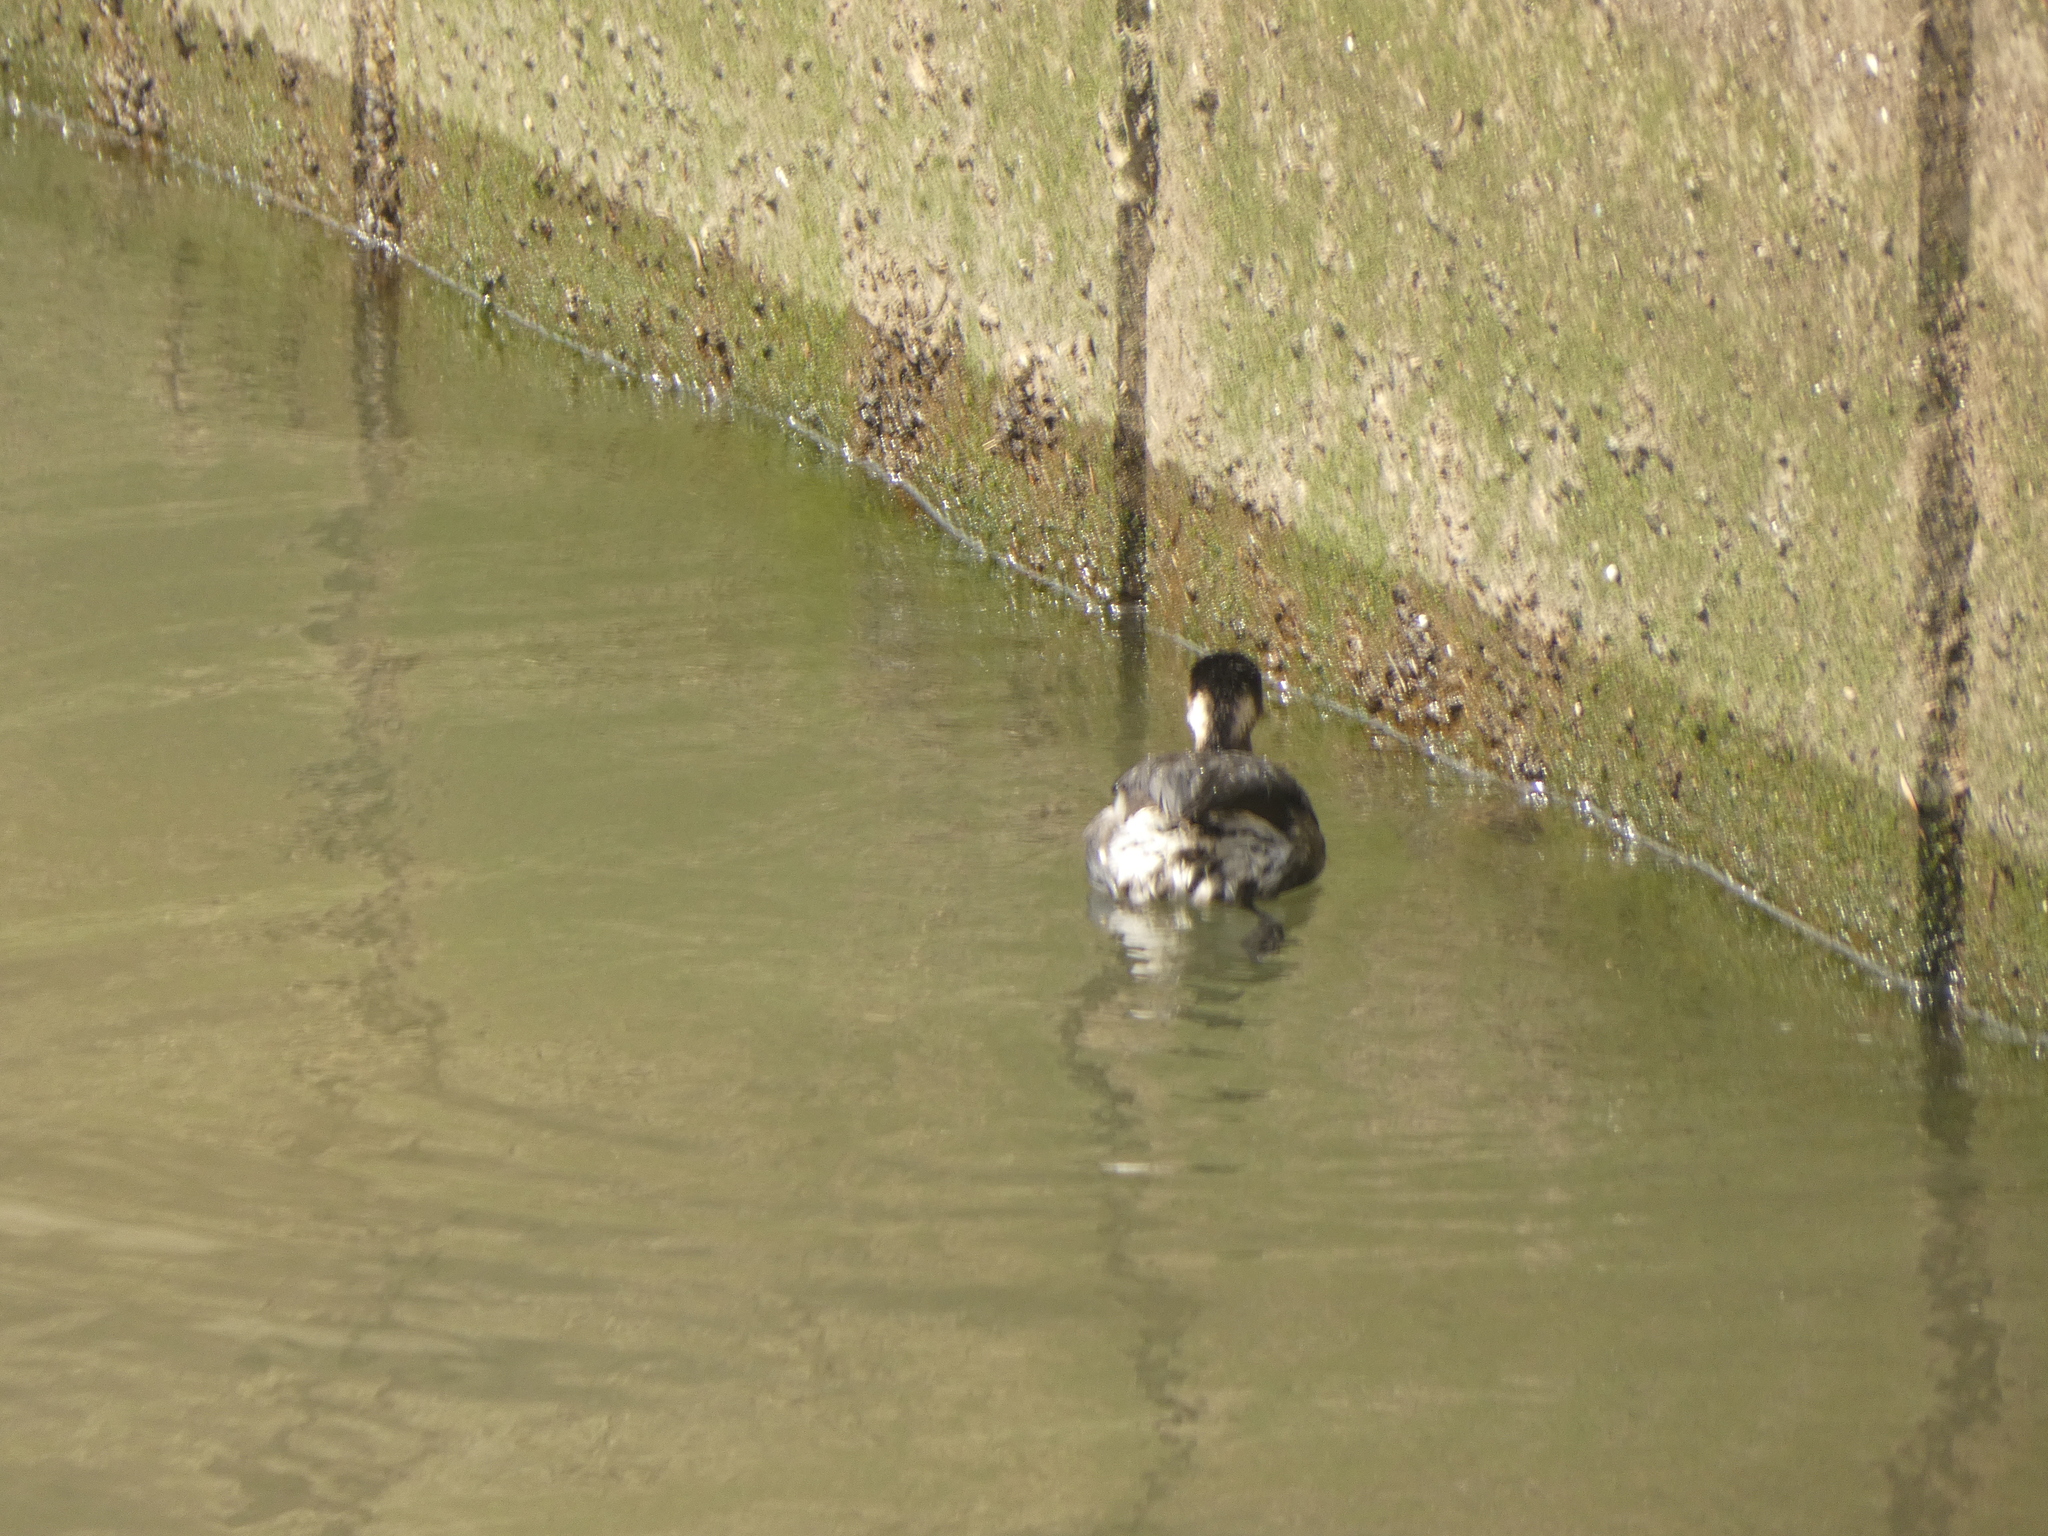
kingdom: Animalia
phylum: Chordata
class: Aves
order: Podicipediformes
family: Podicipedidae
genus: Podiceps
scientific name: Podiceps nigricollis
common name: Black-necked grebe
